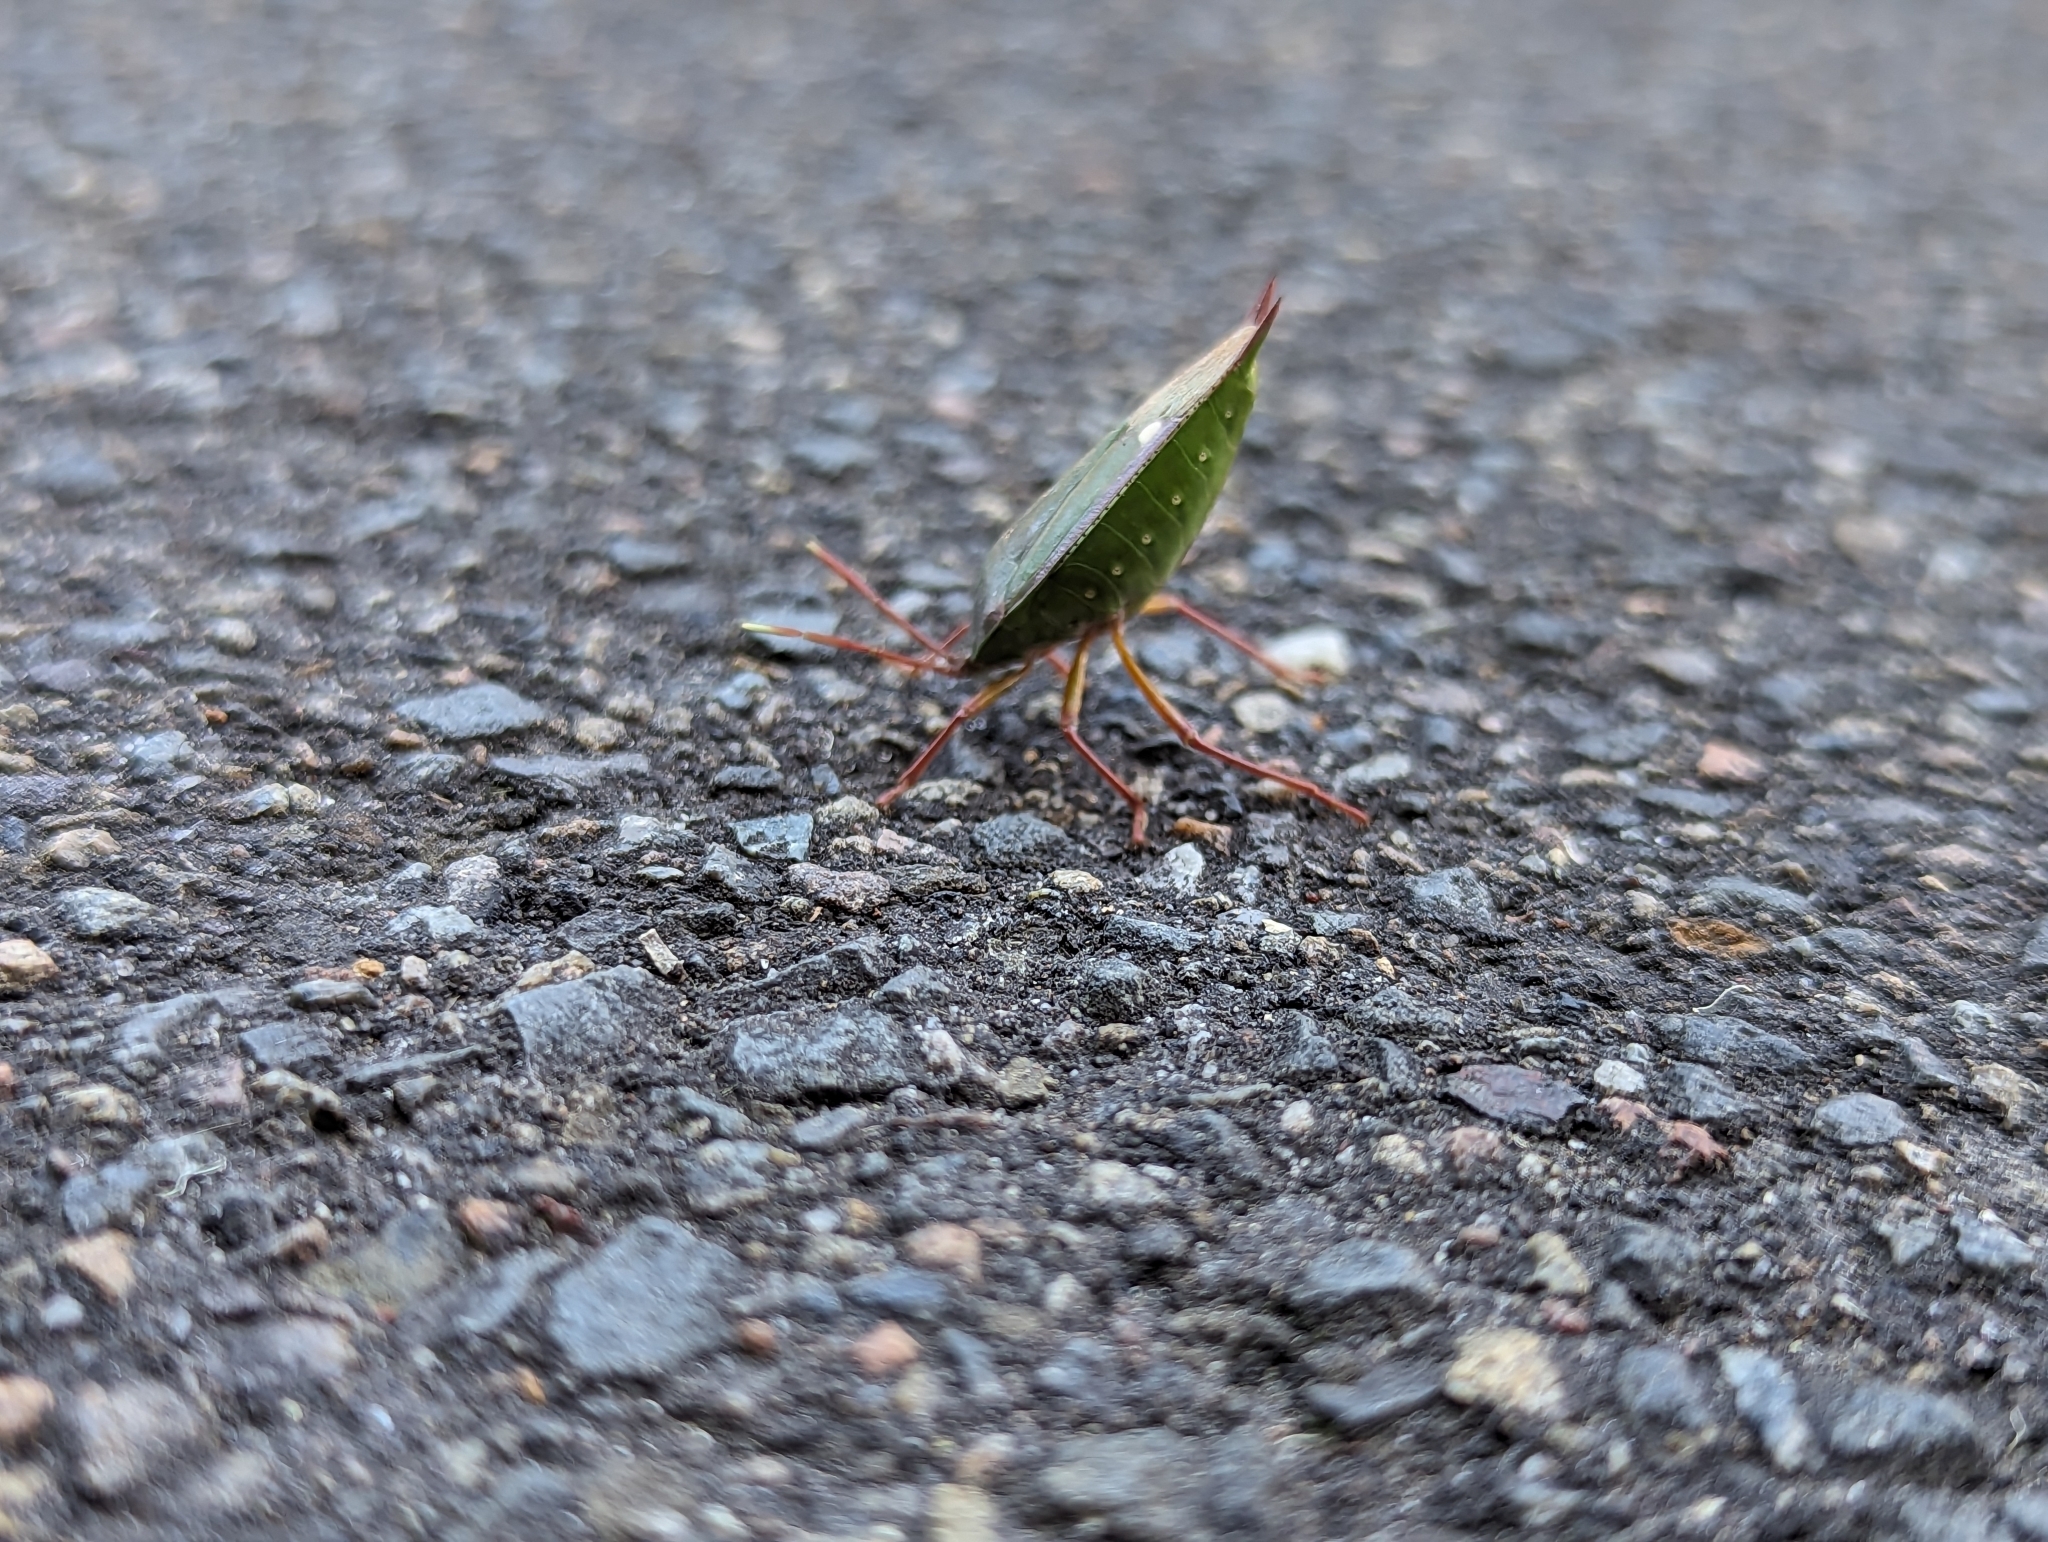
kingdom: Animalia
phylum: Arthropoda
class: Insecta
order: Hemiptera
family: Tessaratomidae
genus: Lyramorpha
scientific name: Lyramorpha rosea
